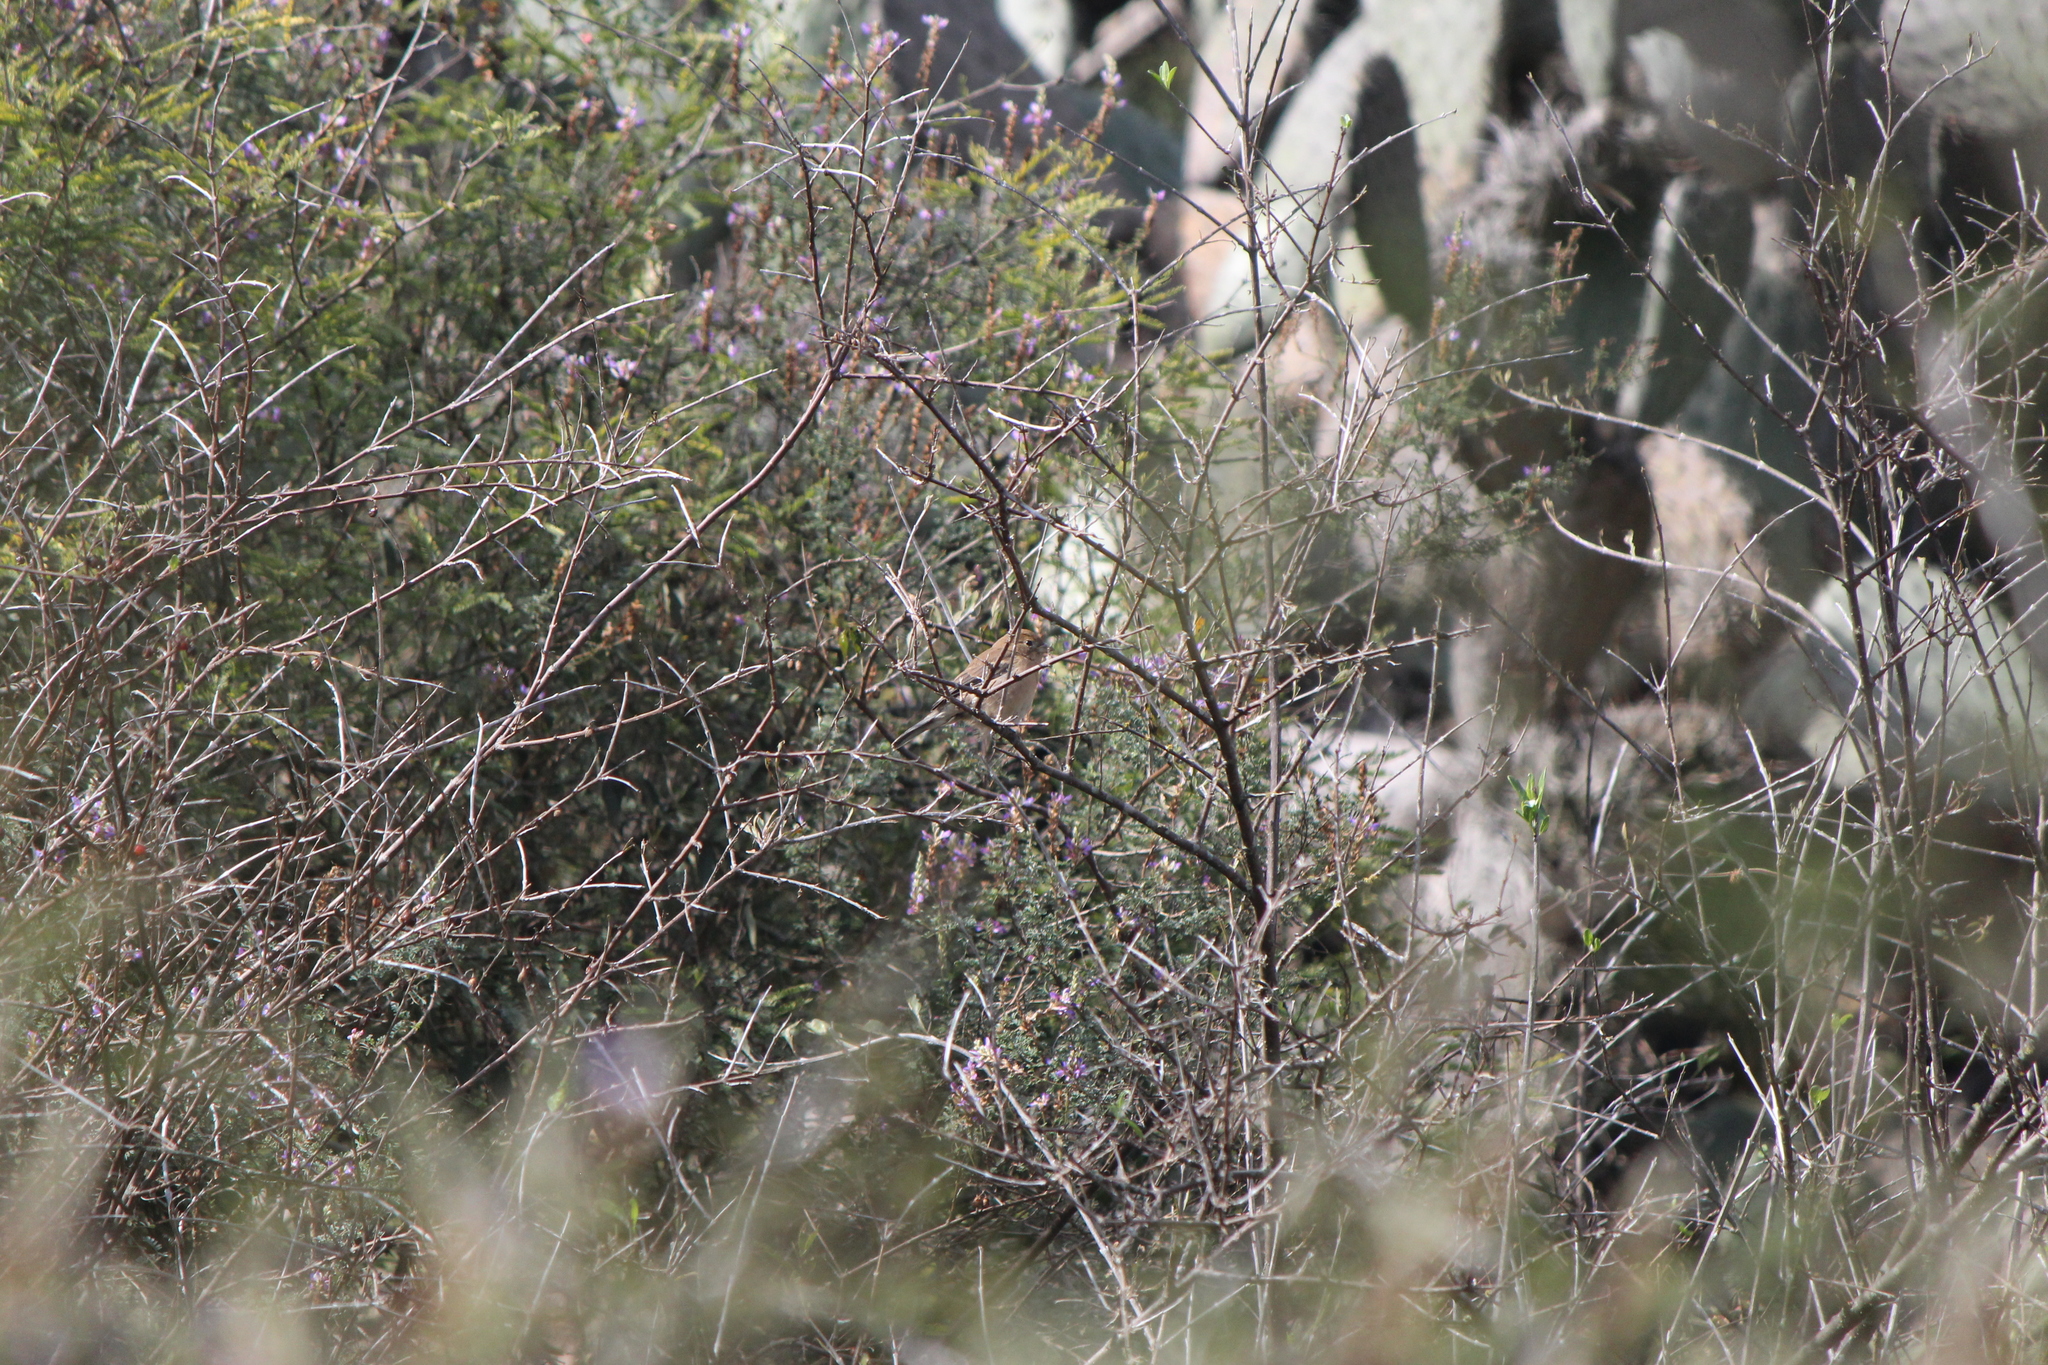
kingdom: Animalia
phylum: Chordata
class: Aves
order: Passeriformes
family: Cardinalidae
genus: Passerina
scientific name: Passerina versicolor
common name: Varied bunting
